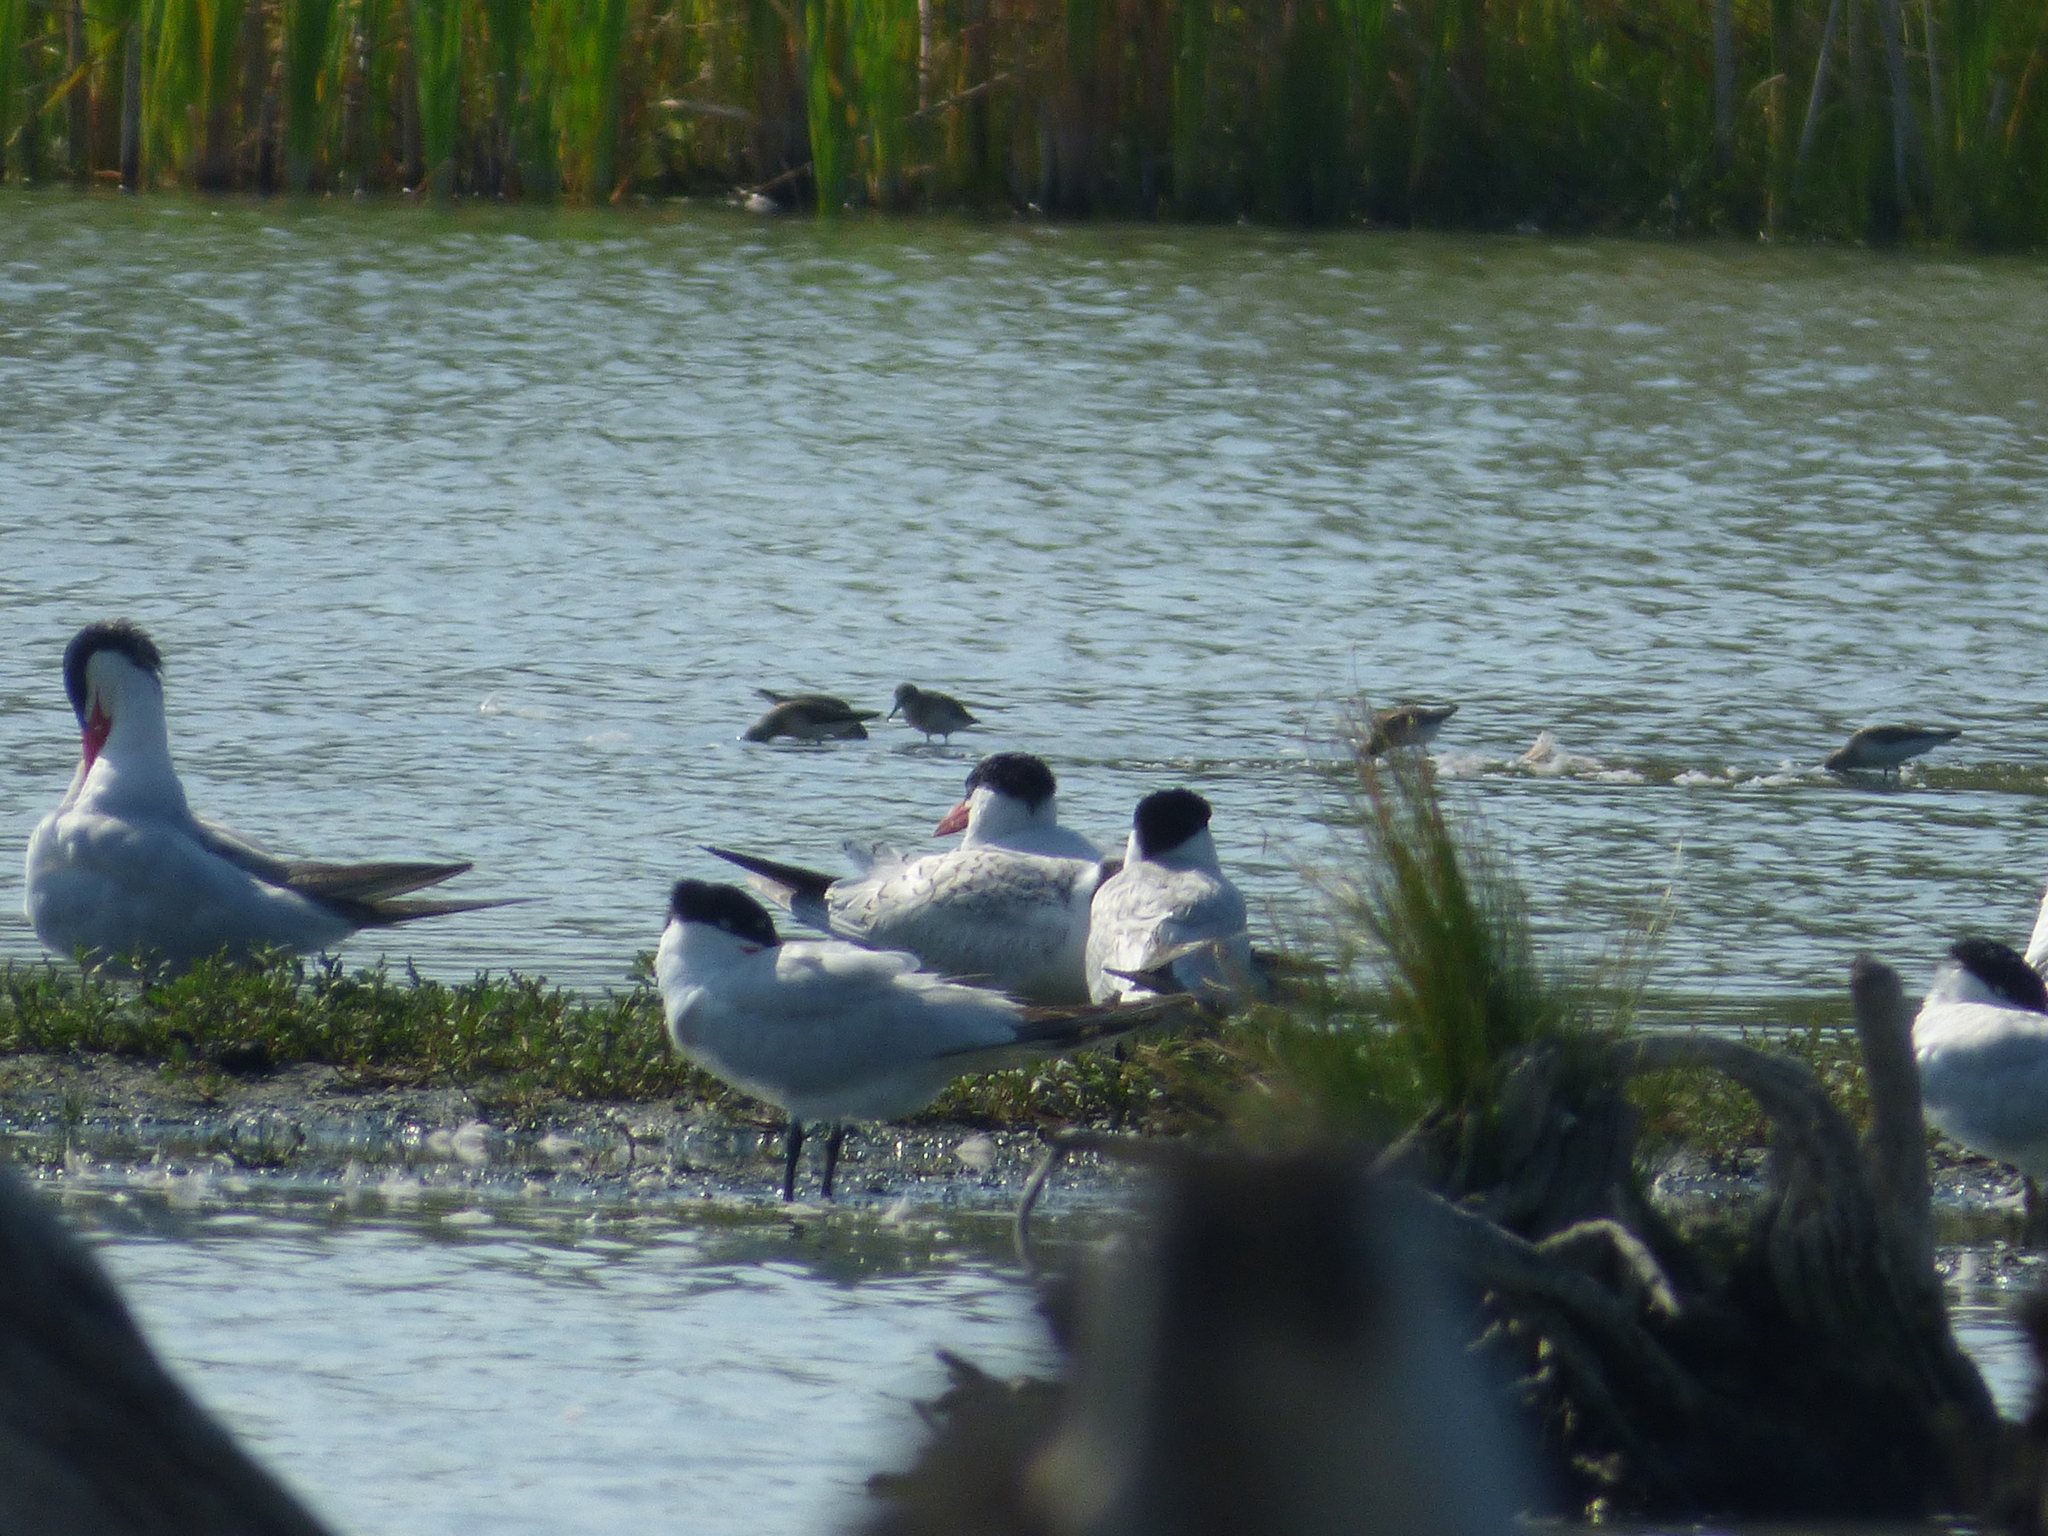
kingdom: Animalia
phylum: Chordata
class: Aves
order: Charadriiformes
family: Laridae
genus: Hydroprogne
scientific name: Hydroprogne caspia
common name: Caspian tern
